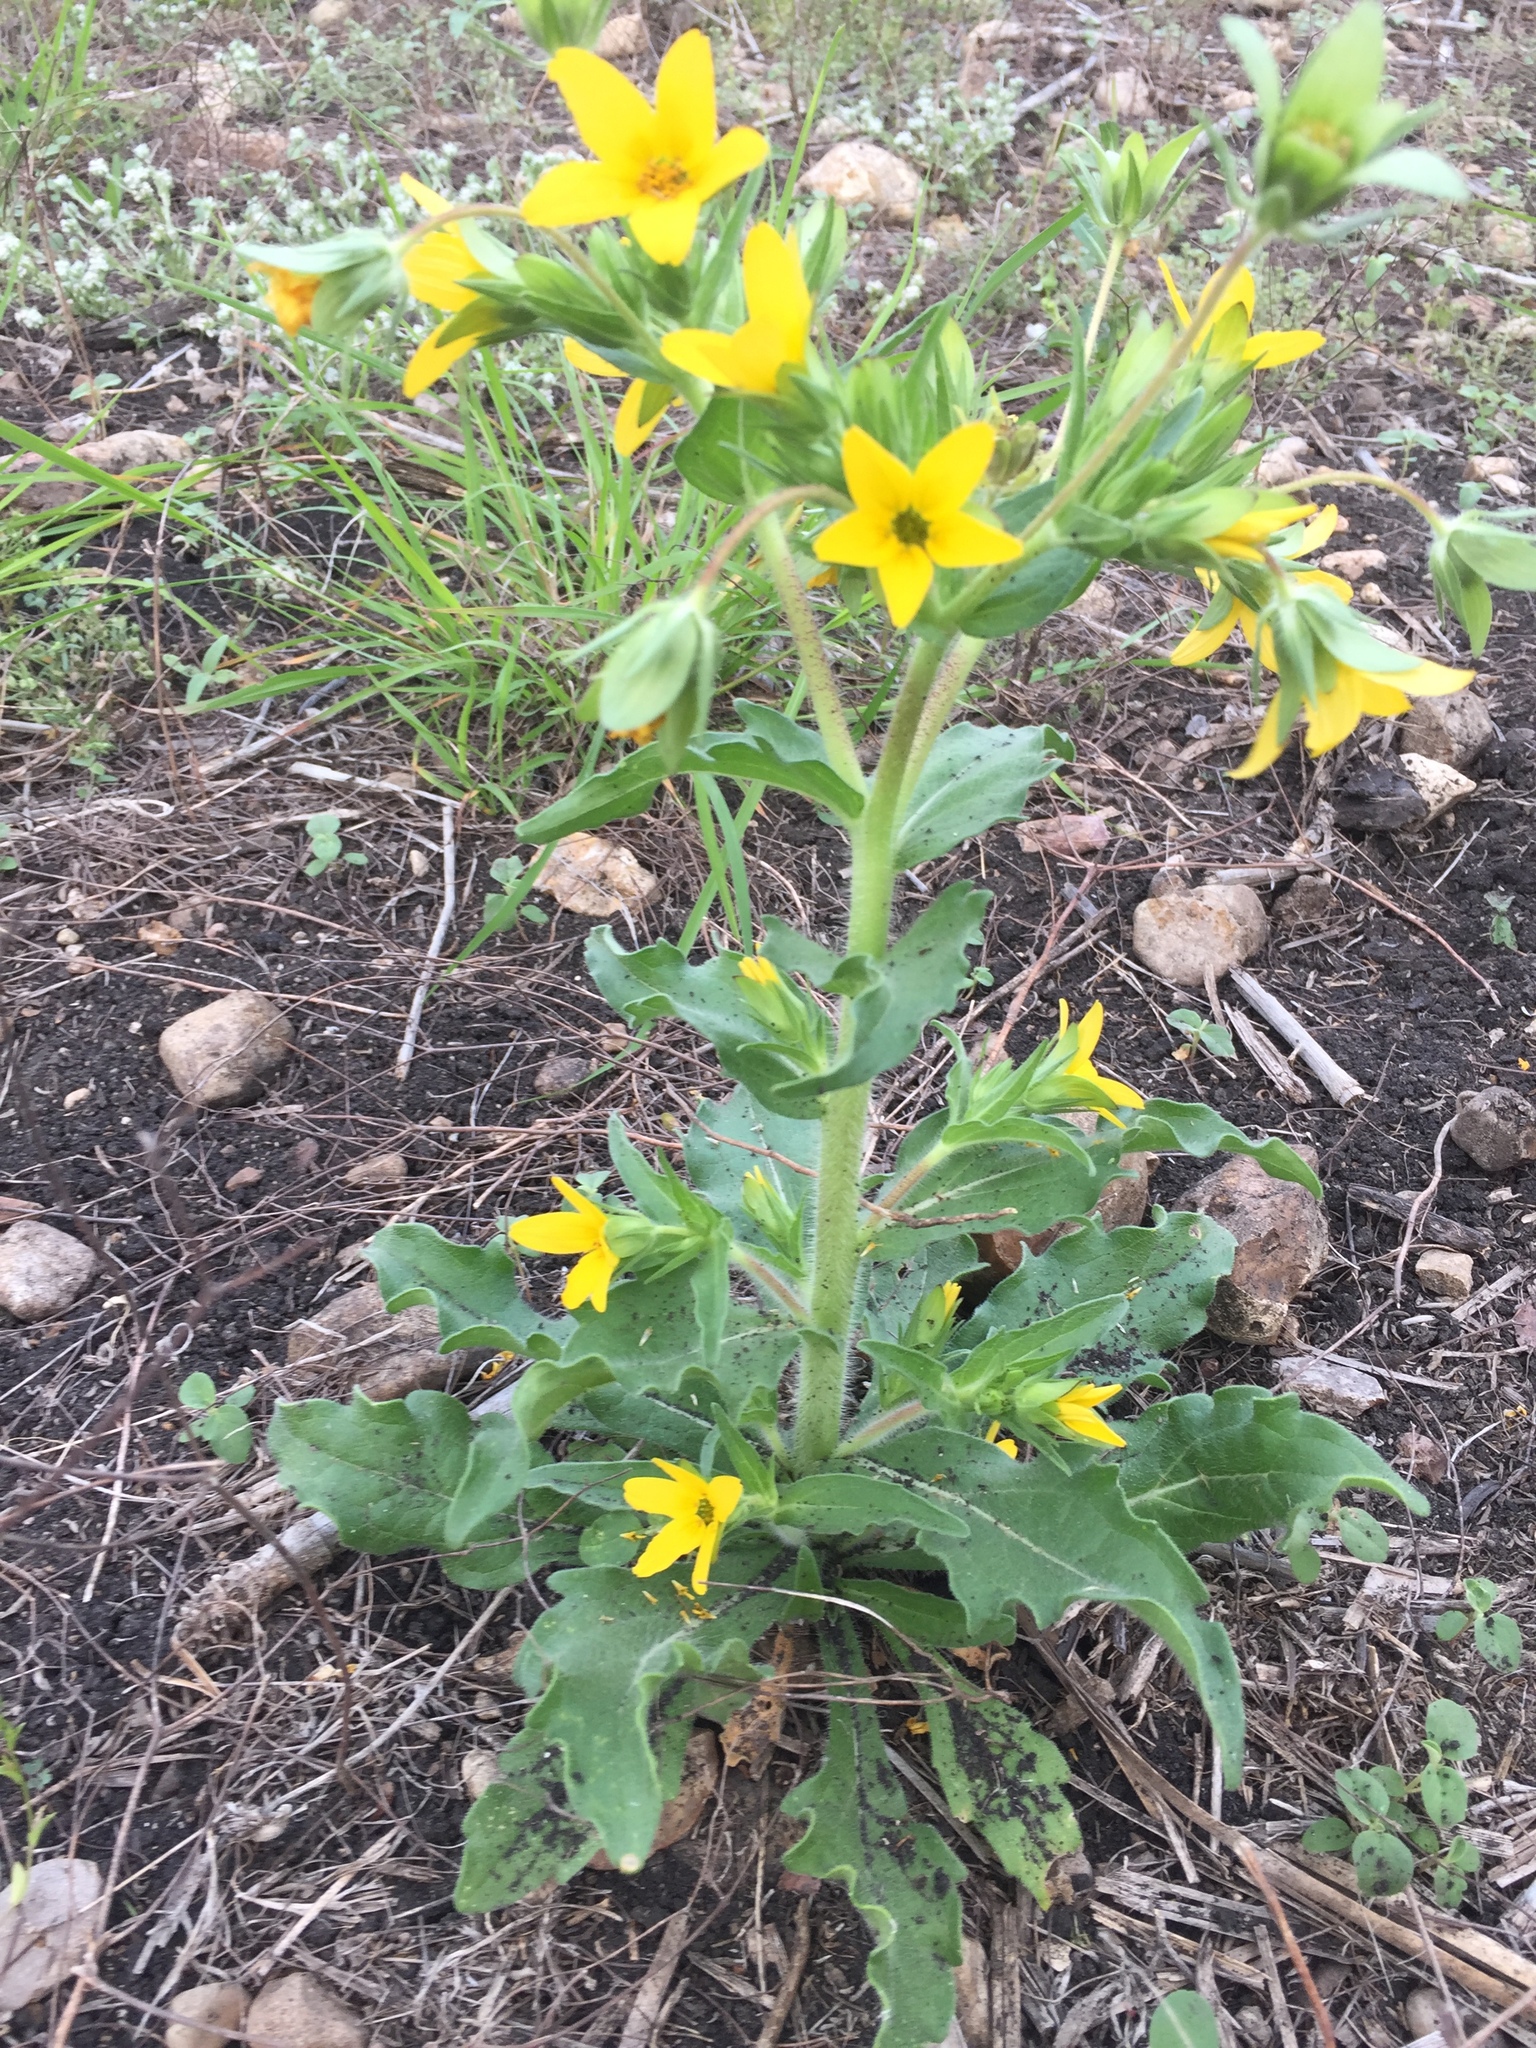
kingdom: Plantae
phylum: Tracheophyta
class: Magnoliopsida
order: Asterales
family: Asteraceae
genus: Lindheimera
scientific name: Lindheimera texana
